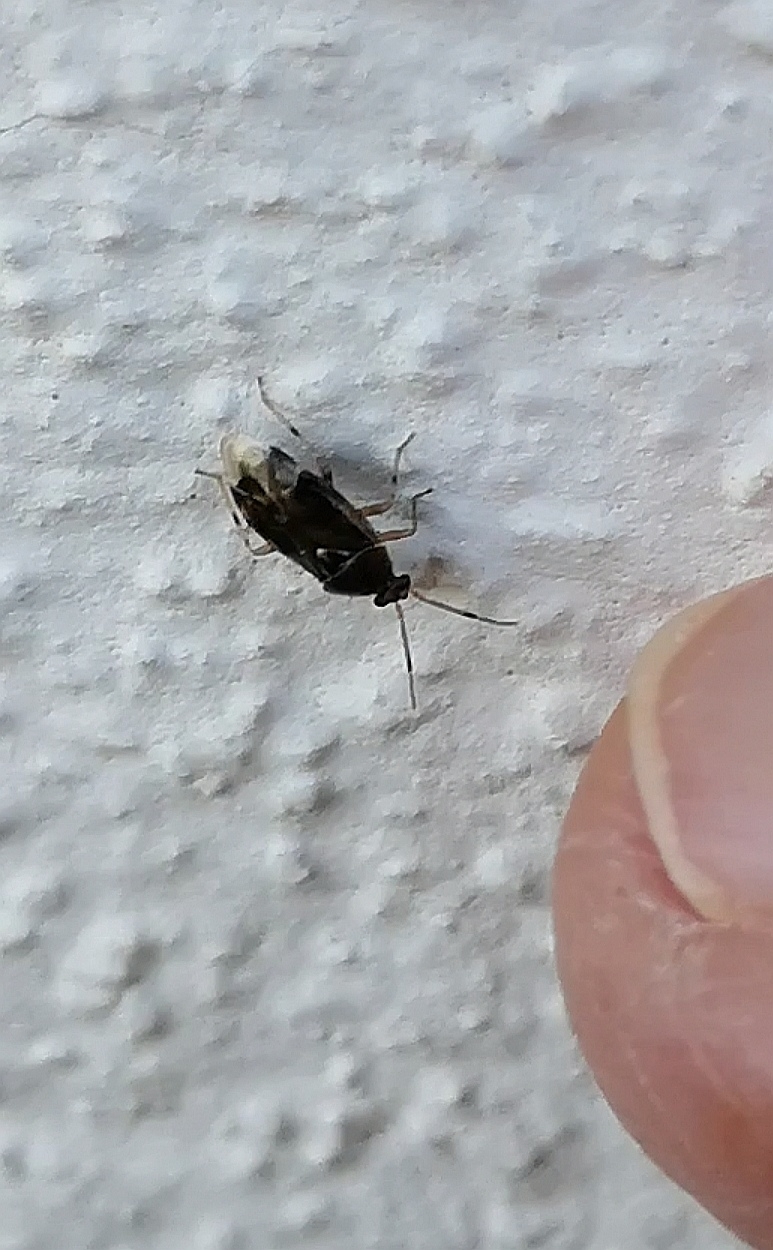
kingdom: Animalia
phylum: Arthropoda
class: Insecta
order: Hemiptera
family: Miridae
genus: Deraeocoris
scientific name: Deraeocoris lutescens
